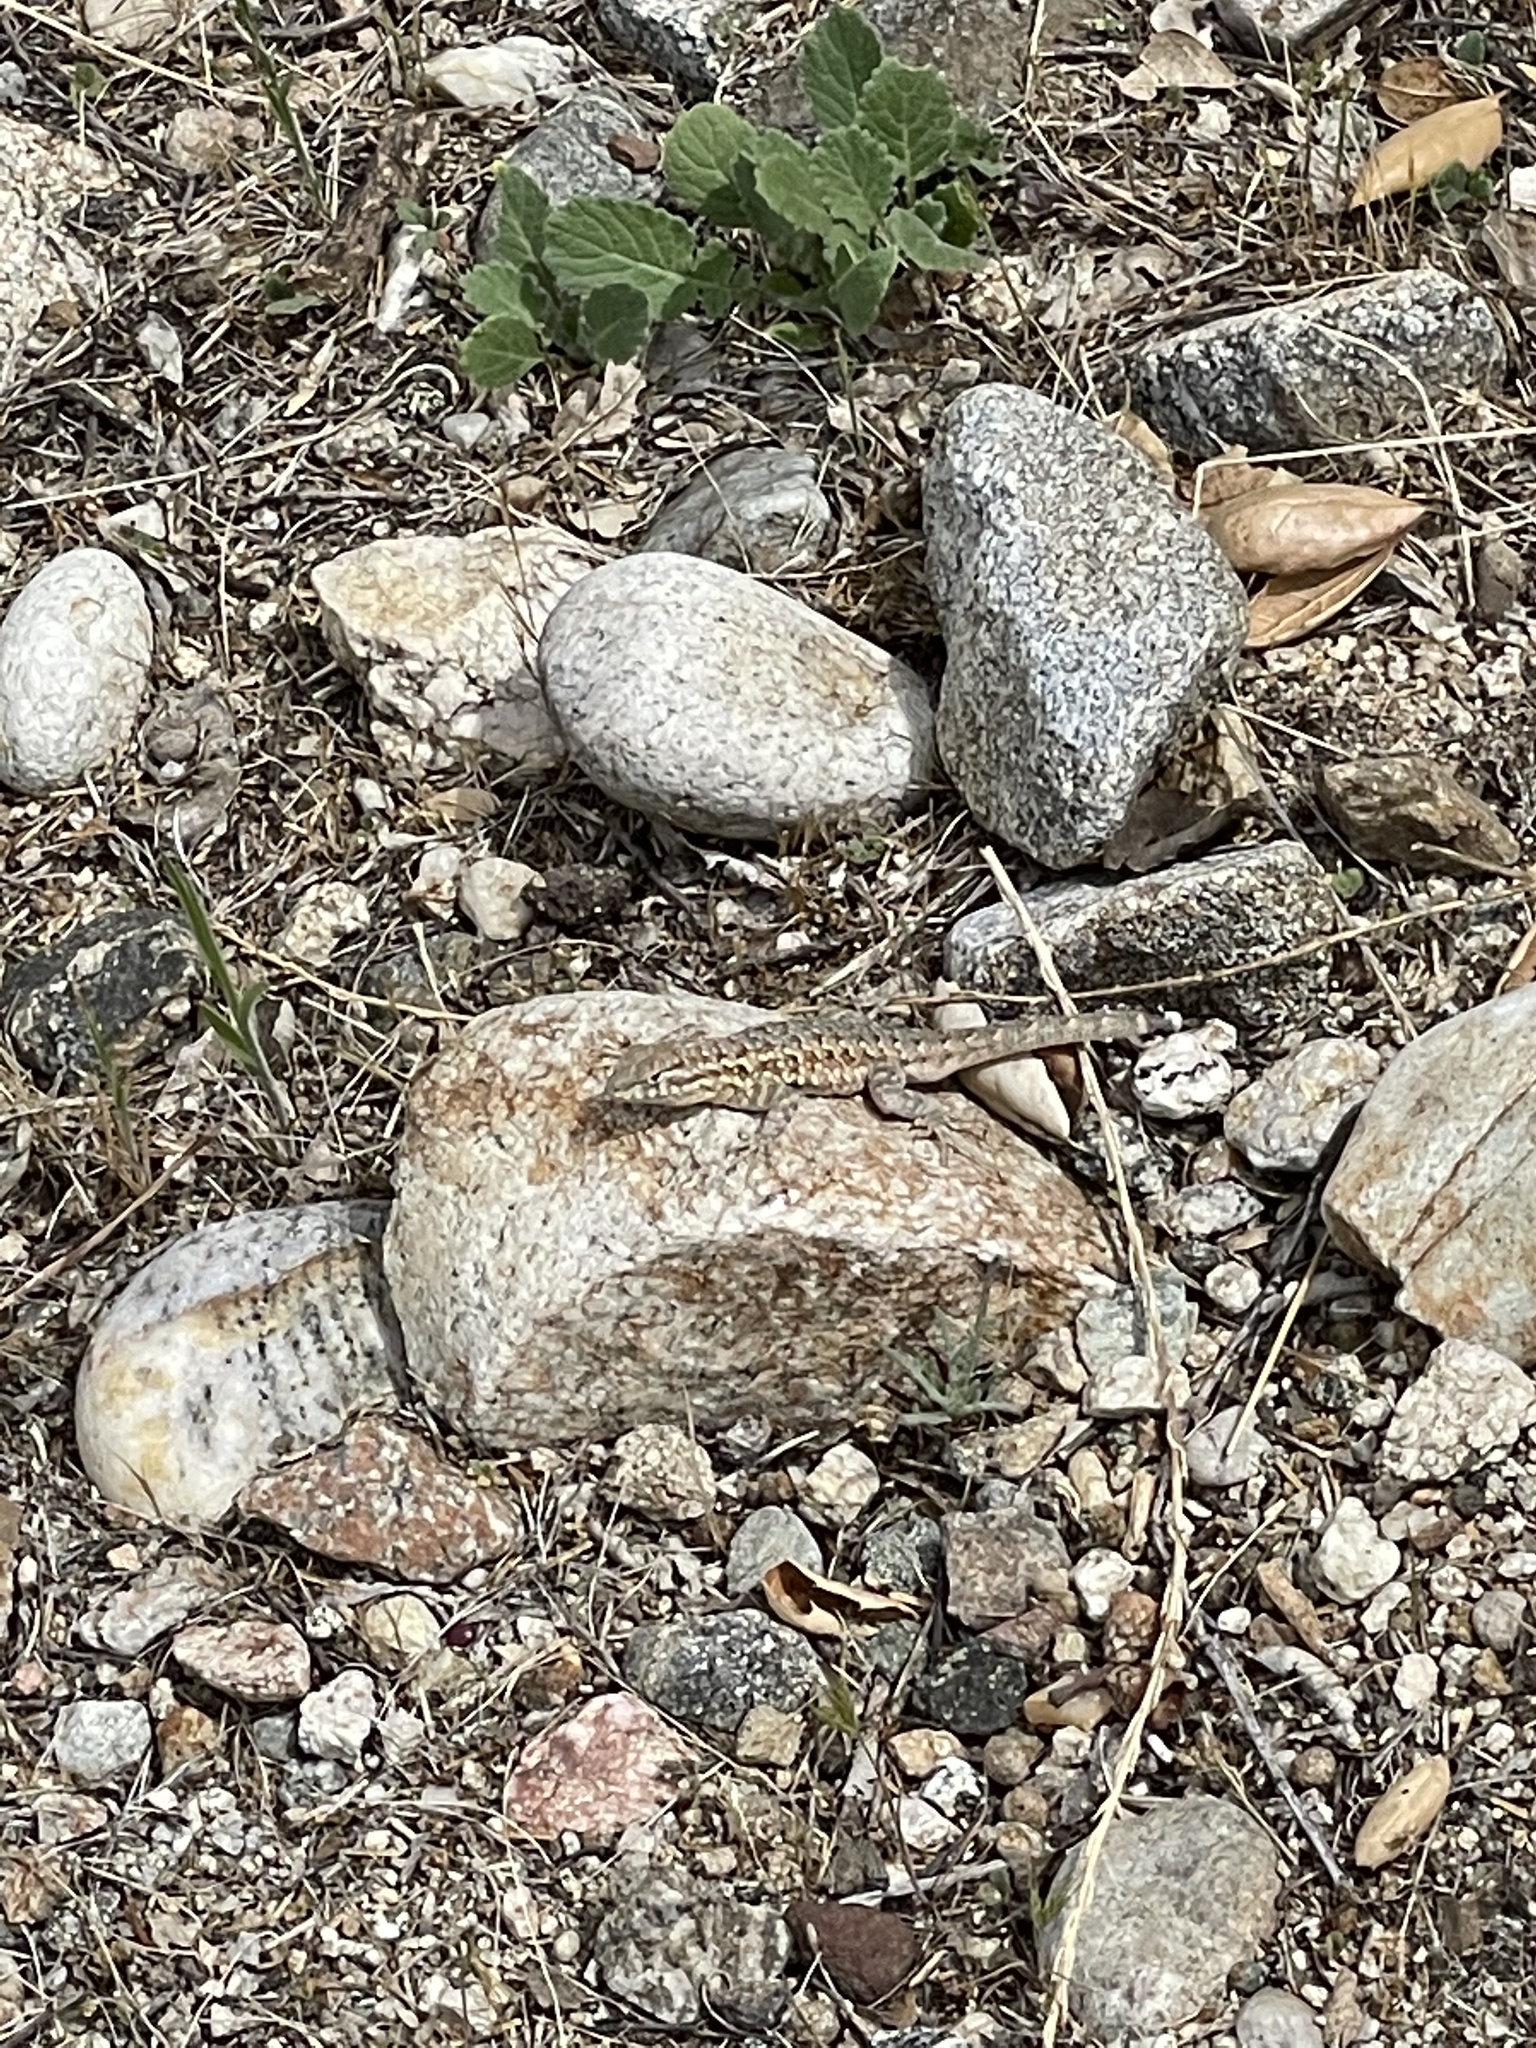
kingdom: Animalia
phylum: Chordata
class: Squamata
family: Phrynosomatidae
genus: Uta
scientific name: Uta stansburiana
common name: Side-blotched lizard
